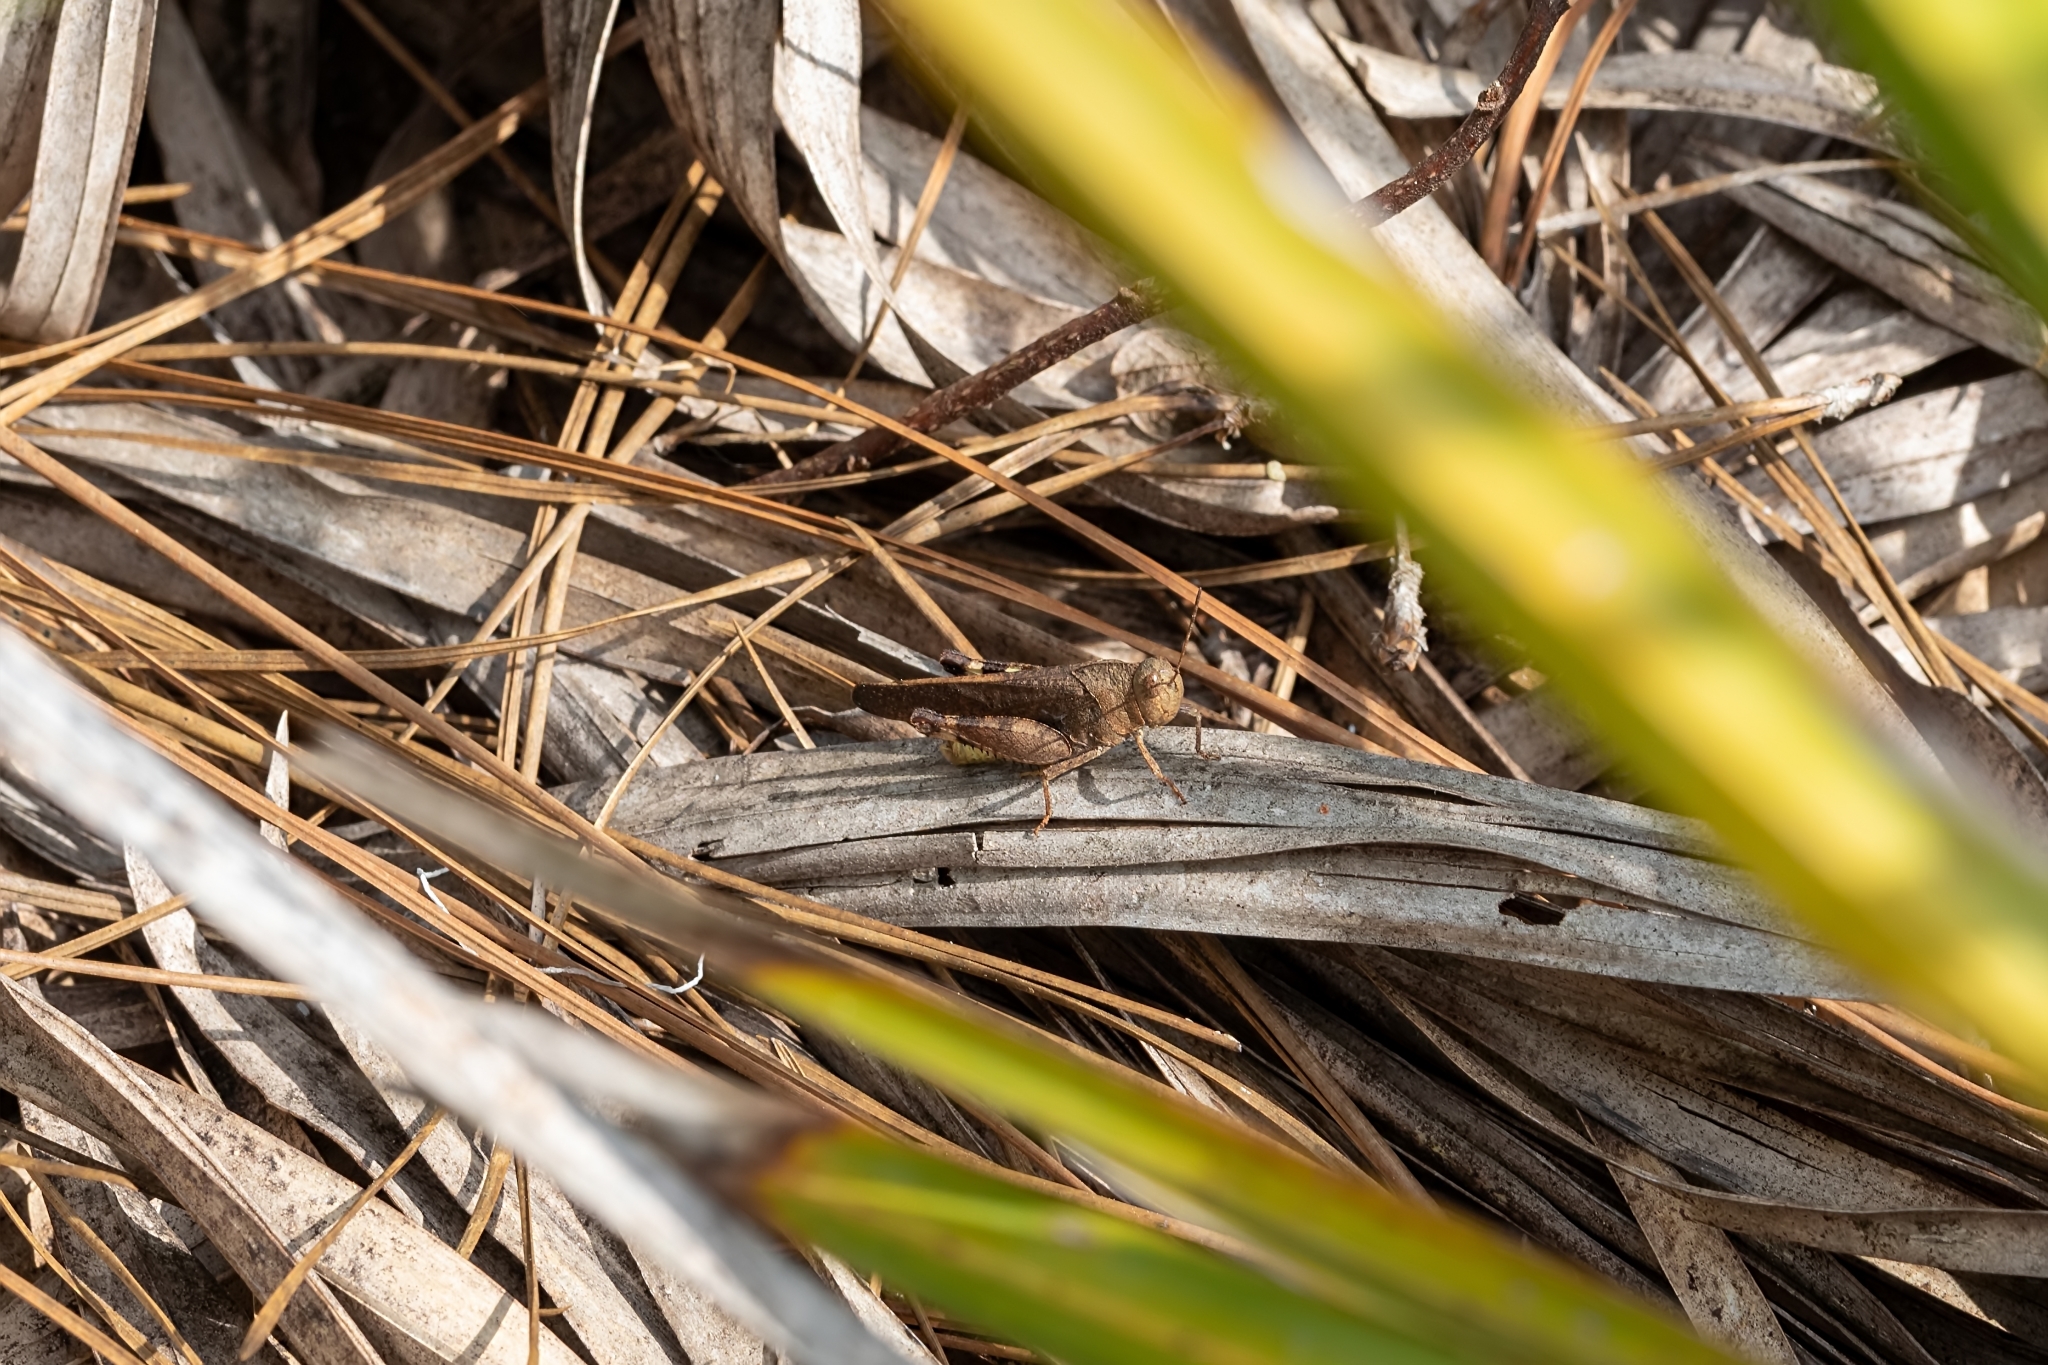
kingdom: Animalia
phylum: Arthropoda
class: Insecta
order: Orthoptera
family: Acrididae
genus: Arphia
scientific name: Arphia granulata
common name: Southern yellow-winged grasshopper
